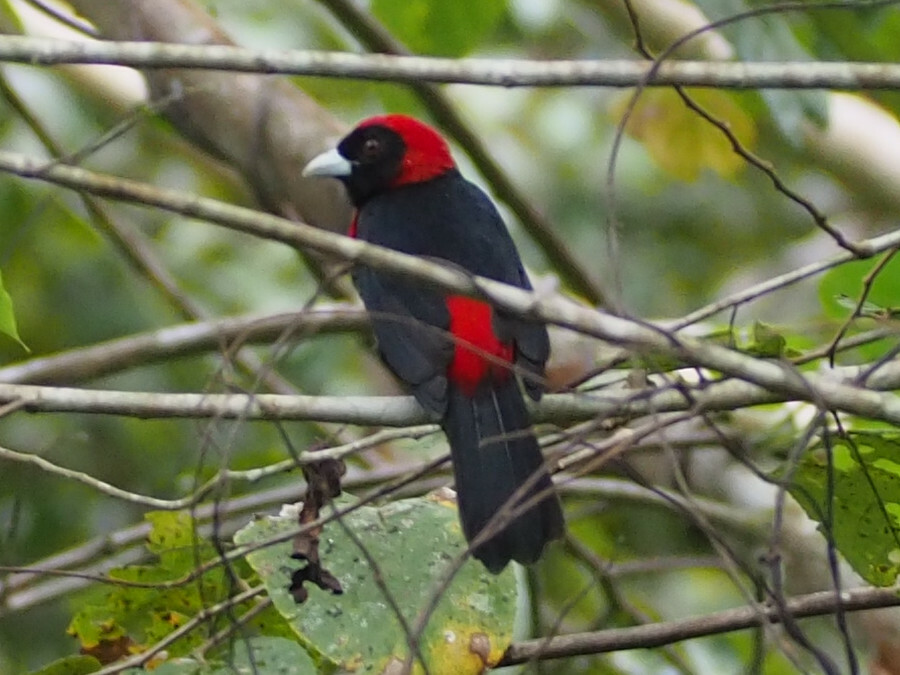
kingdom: Animalia
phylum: Chordata
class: Aves
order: Passeriformes
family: Thraupidae
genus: Ramphocelus
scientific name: Ramphocelus sanguinolentus
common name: Crimson-collared tanager
